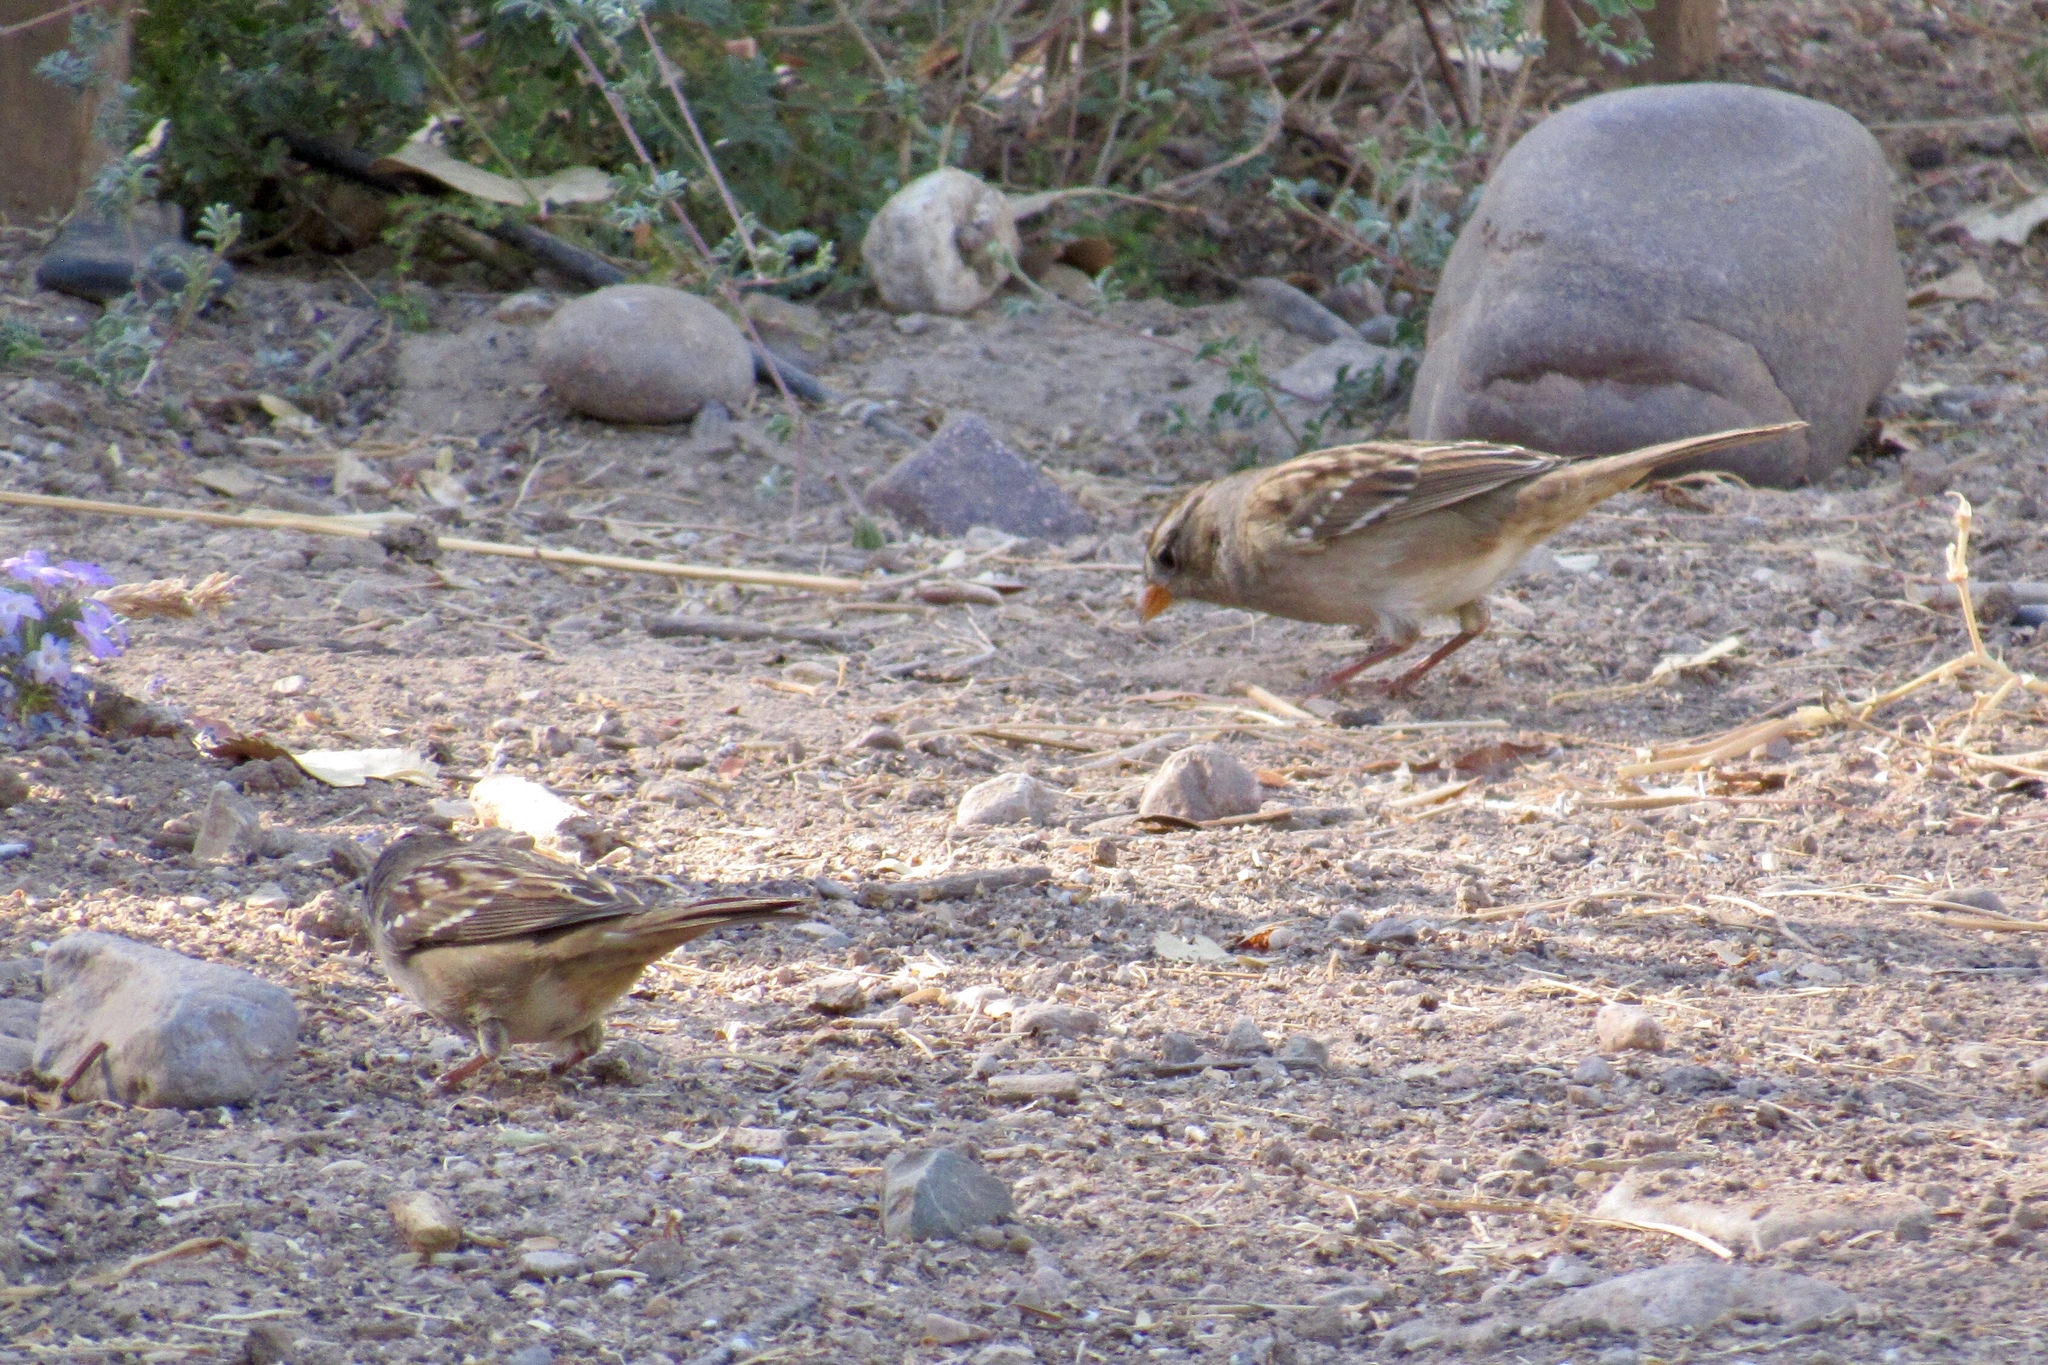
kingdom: Animalia
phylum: Chordata
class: Aves
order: Passeriformes
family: Passerellidae
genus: Zonotrichia
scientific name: Zonotrichia leucophrys
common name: White-crowned sparrow
